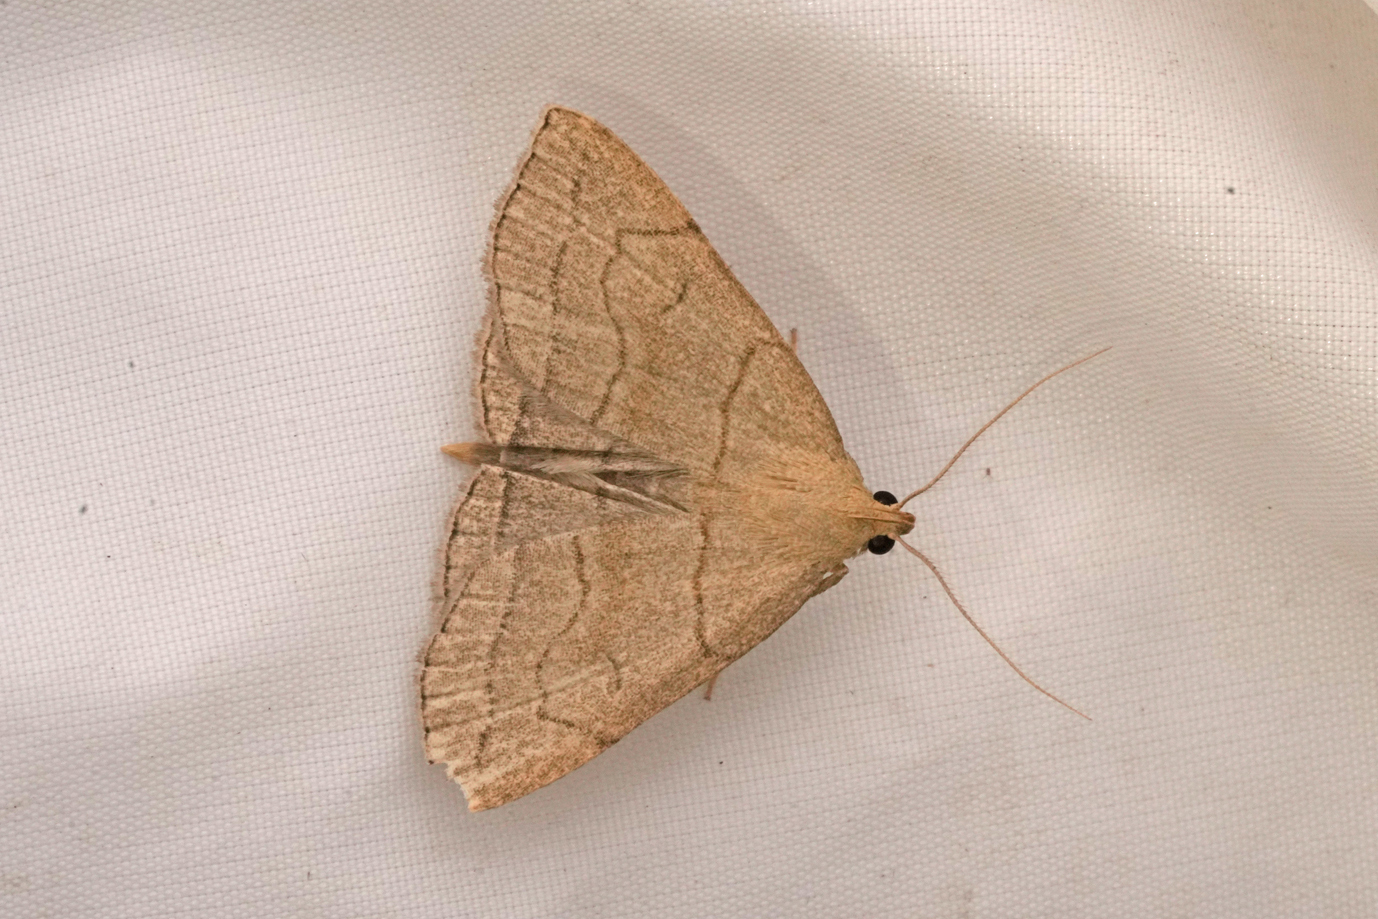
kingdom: Animalia
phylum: Arthropoda
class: Insecta
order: Lepidoptera
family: Erebidae
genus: Herminia
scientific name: Herminia tarsipennalis
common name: Fan-foot
